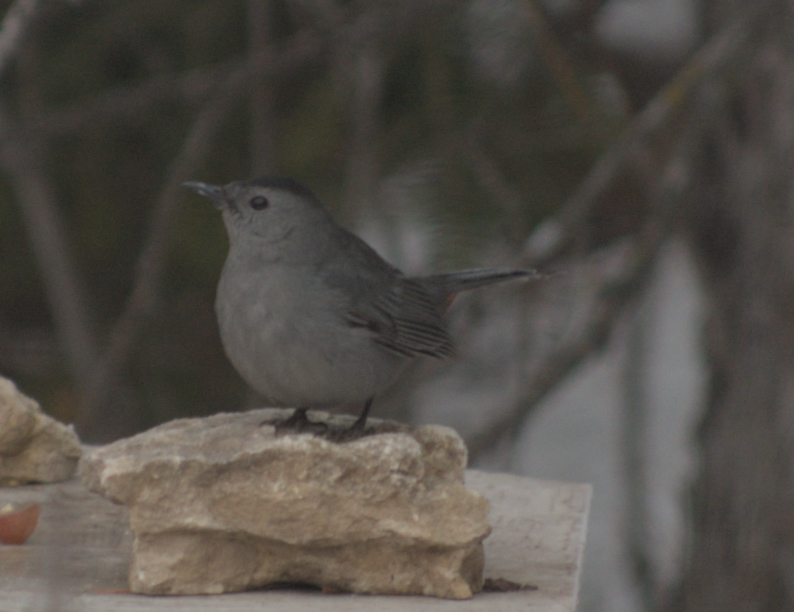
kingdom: Animalia
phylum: Chordata
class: Aves
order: Passeriformes
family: Mimidae
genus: Dumetella
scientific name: Dumetella carolinensis
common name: Gray catbird
